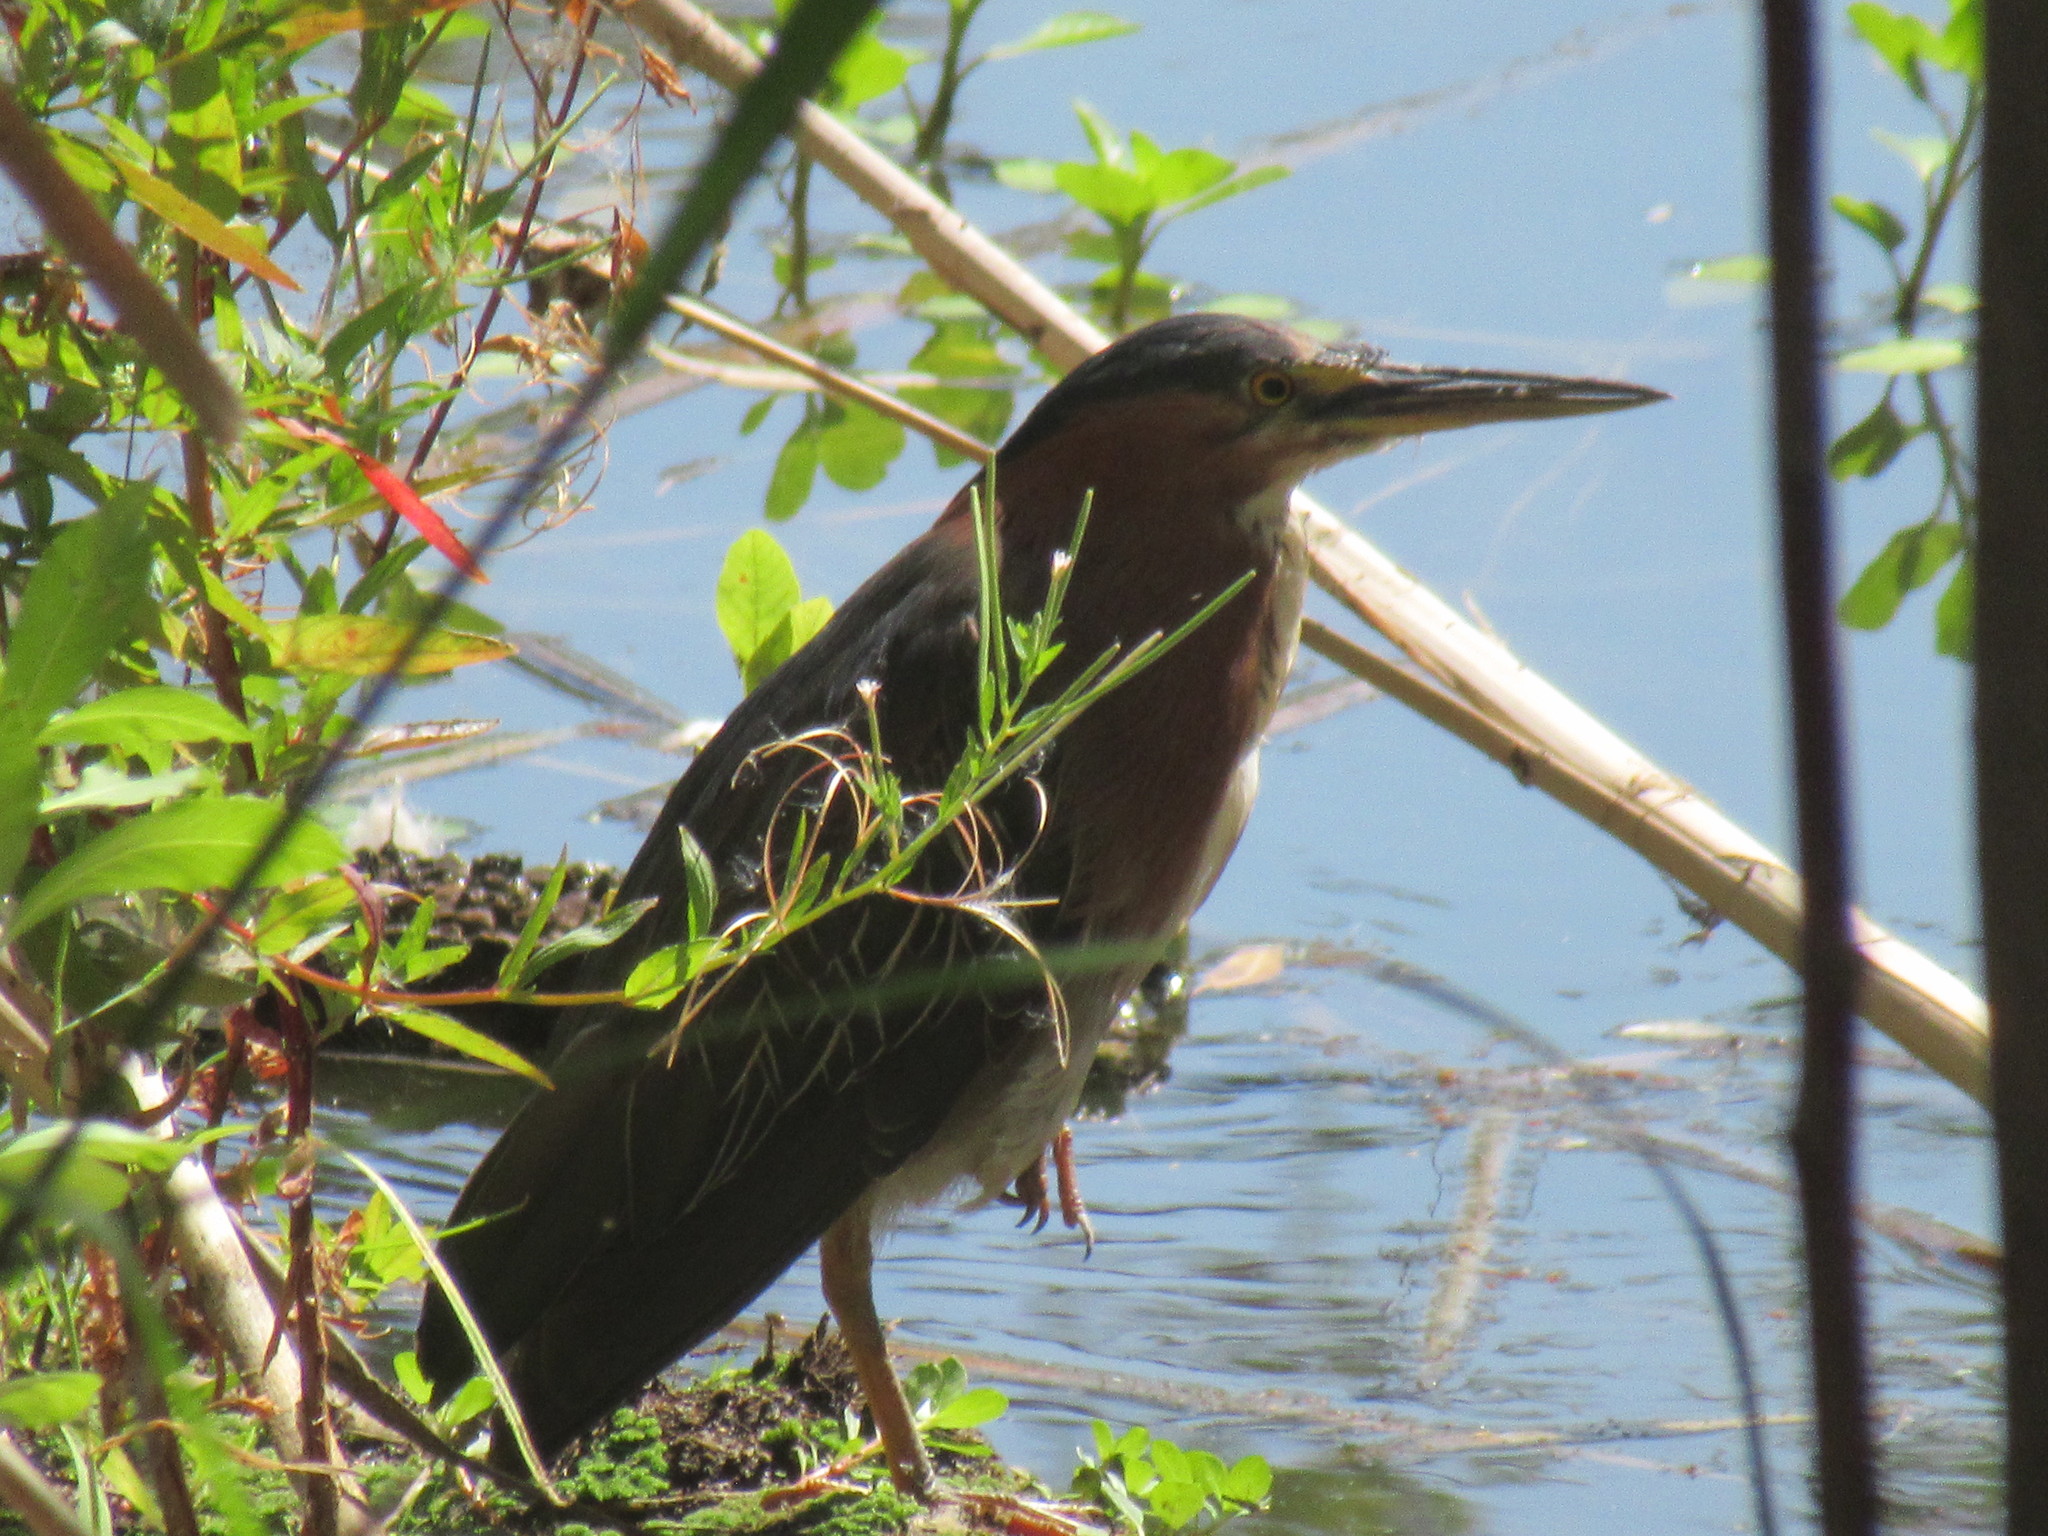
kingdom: Animalia
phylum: Chordata
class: Aves
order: Pelecaniformes
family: Ardeidae
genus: Butorides
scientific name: Butorides virescens
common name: Green heron
